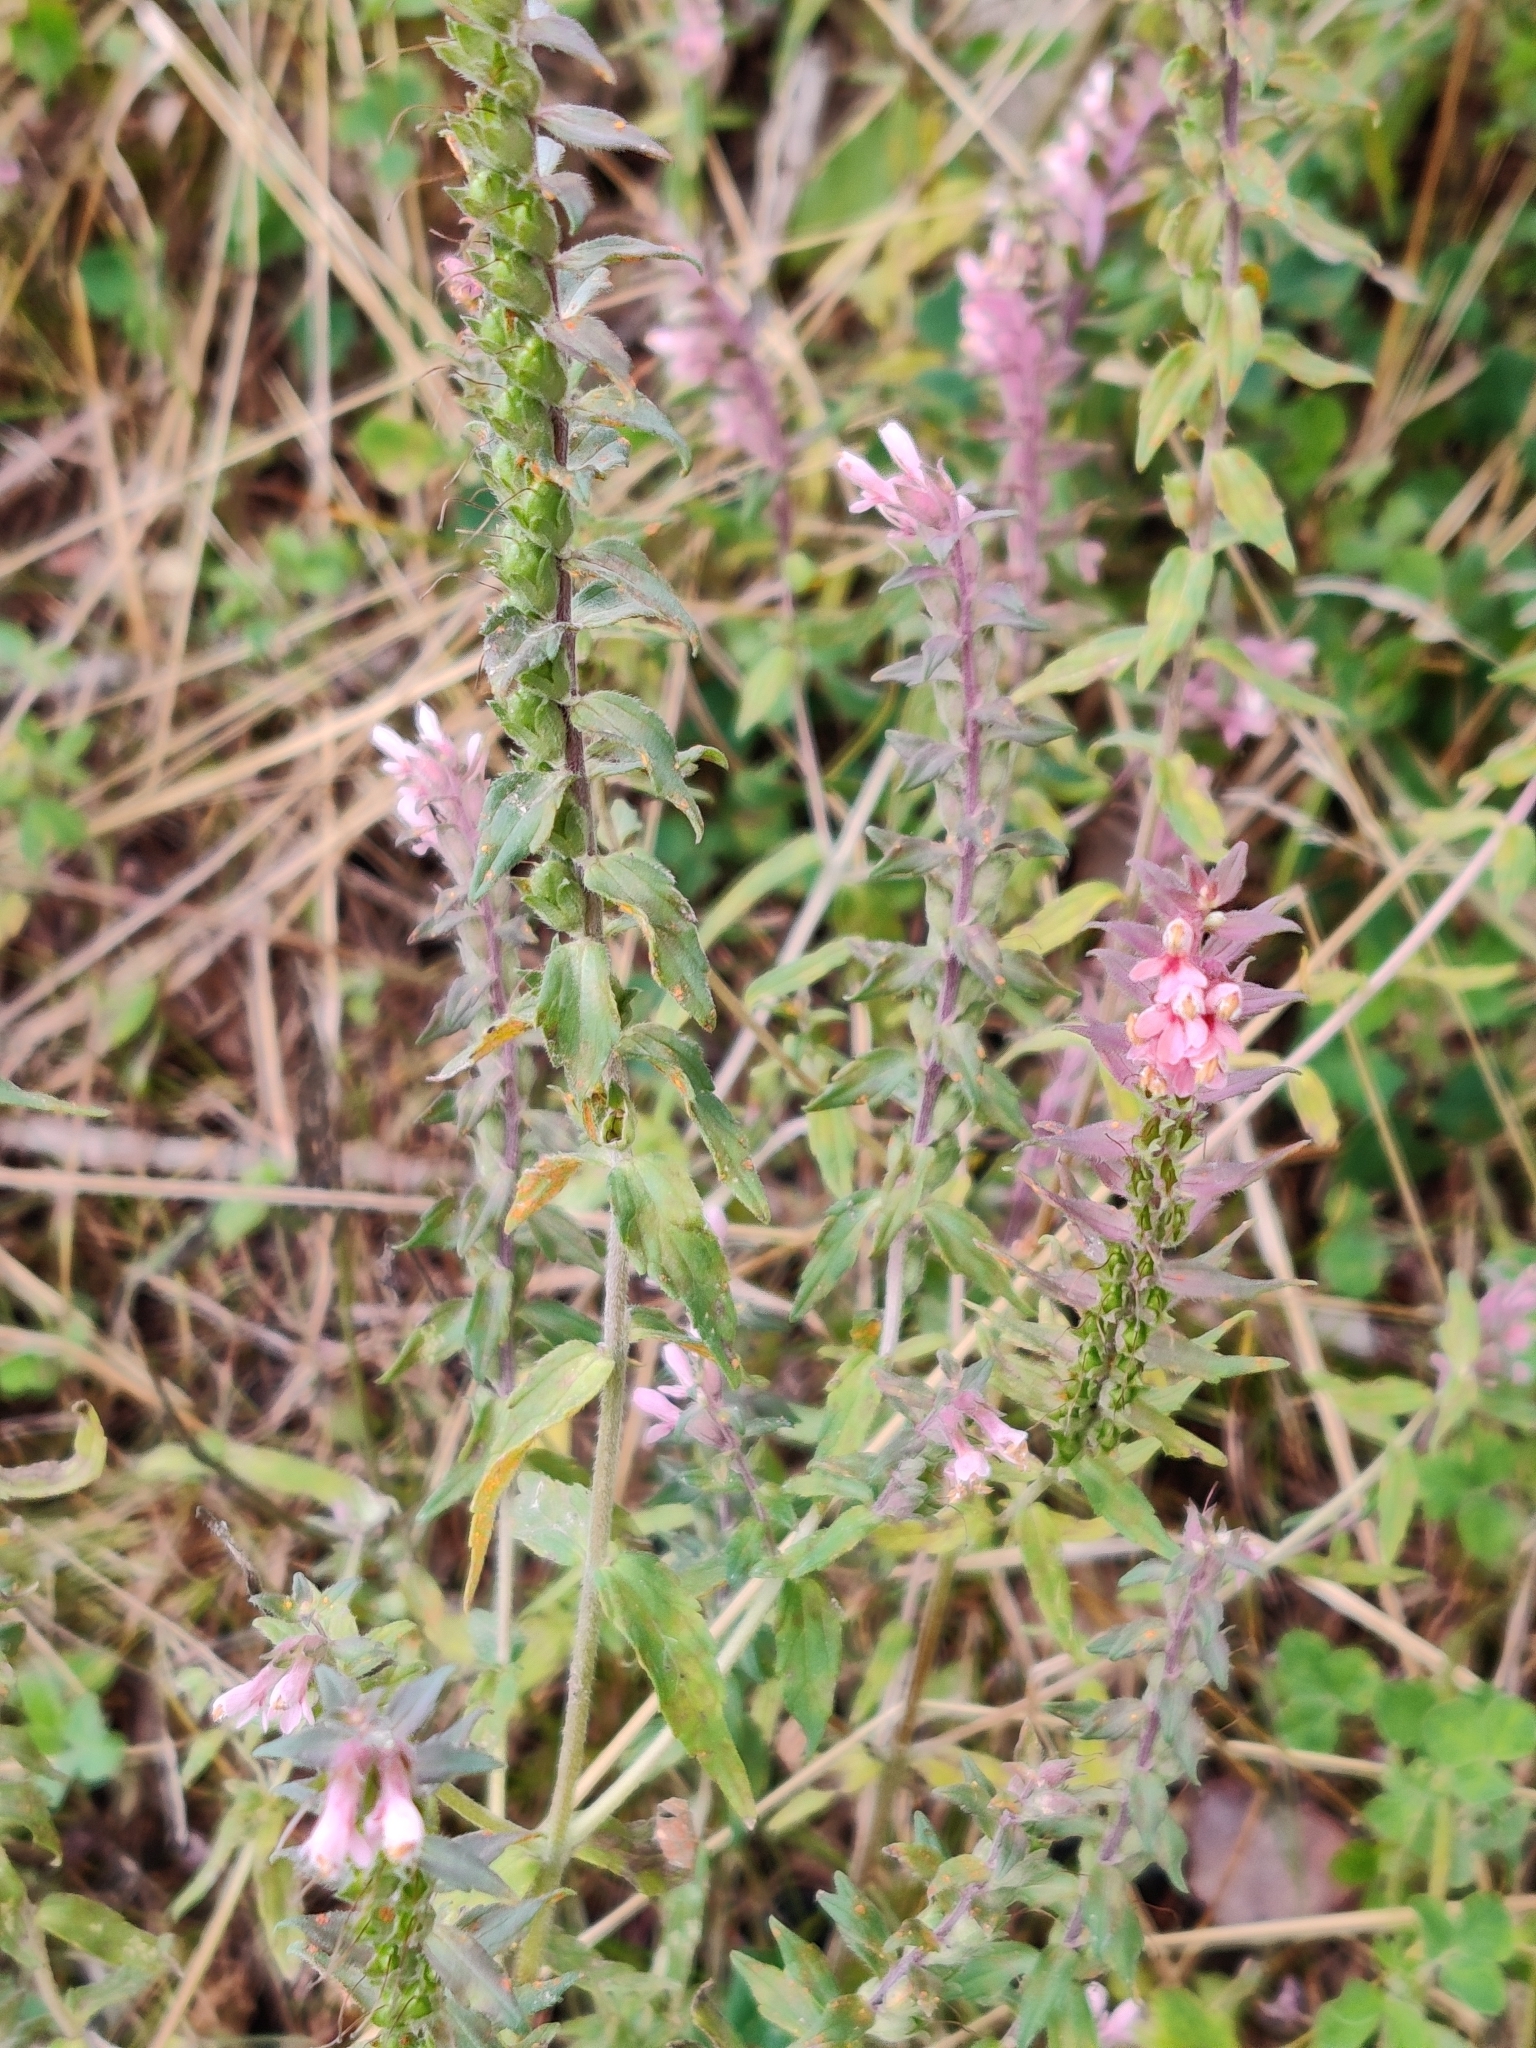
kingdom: Plantae
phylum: Tracheophyta
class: Magnoliopsida
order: Lamiales
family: Orobanchaceae
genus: Odontites
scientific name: Odontites vulgaris
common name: Broomrape
